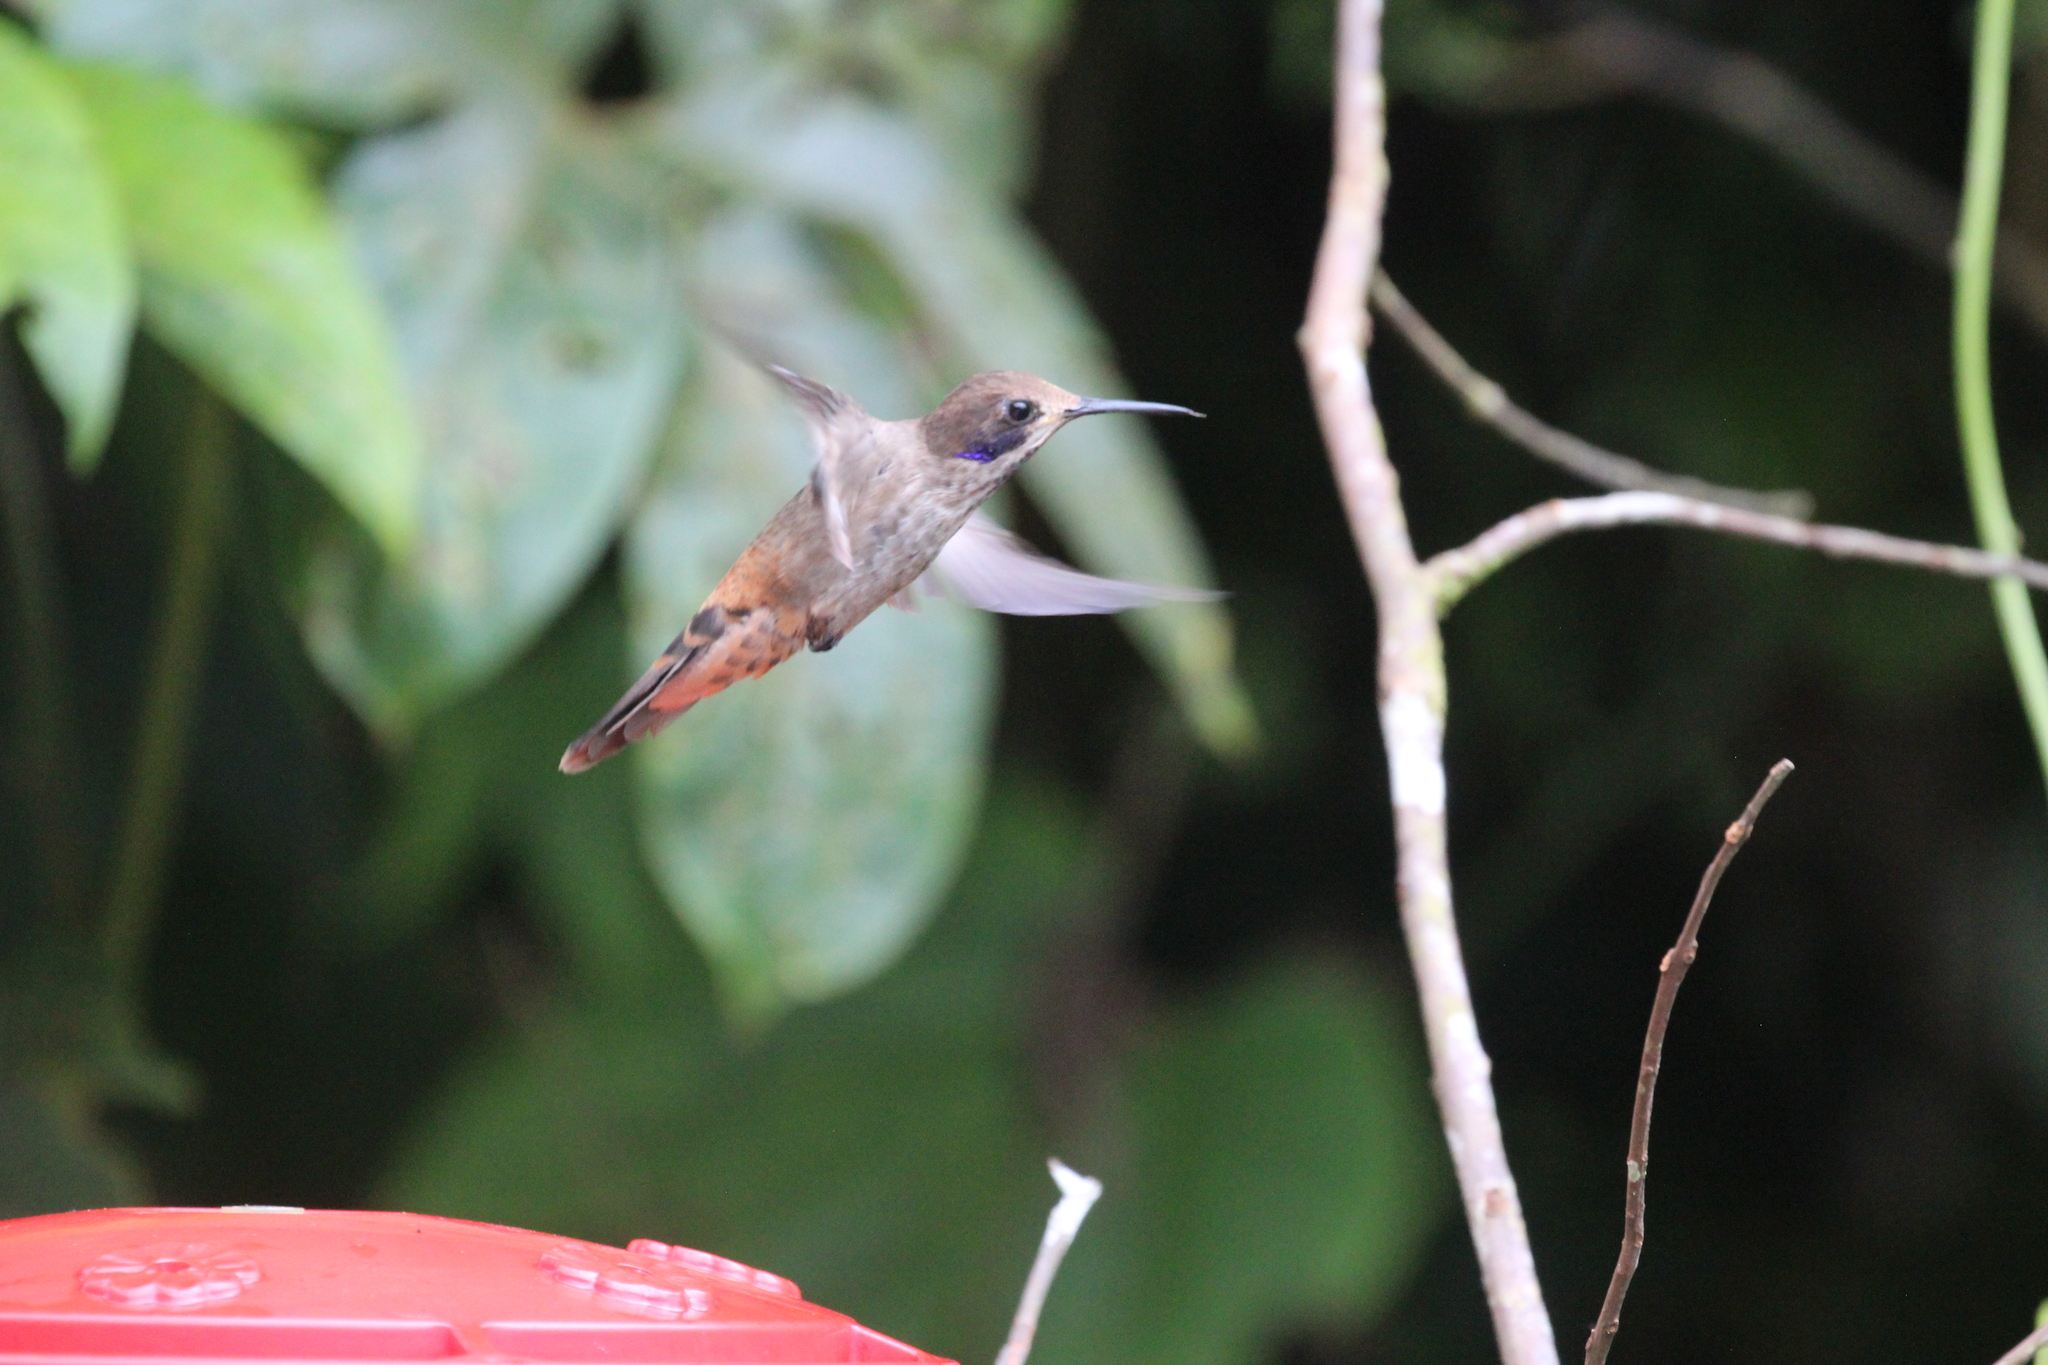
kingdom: Animalia
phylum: Chordata
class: Aves
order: Apodiformes
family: Trochilidae
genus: Colibri
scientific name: Colibri delphinae
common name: Brown violetear
